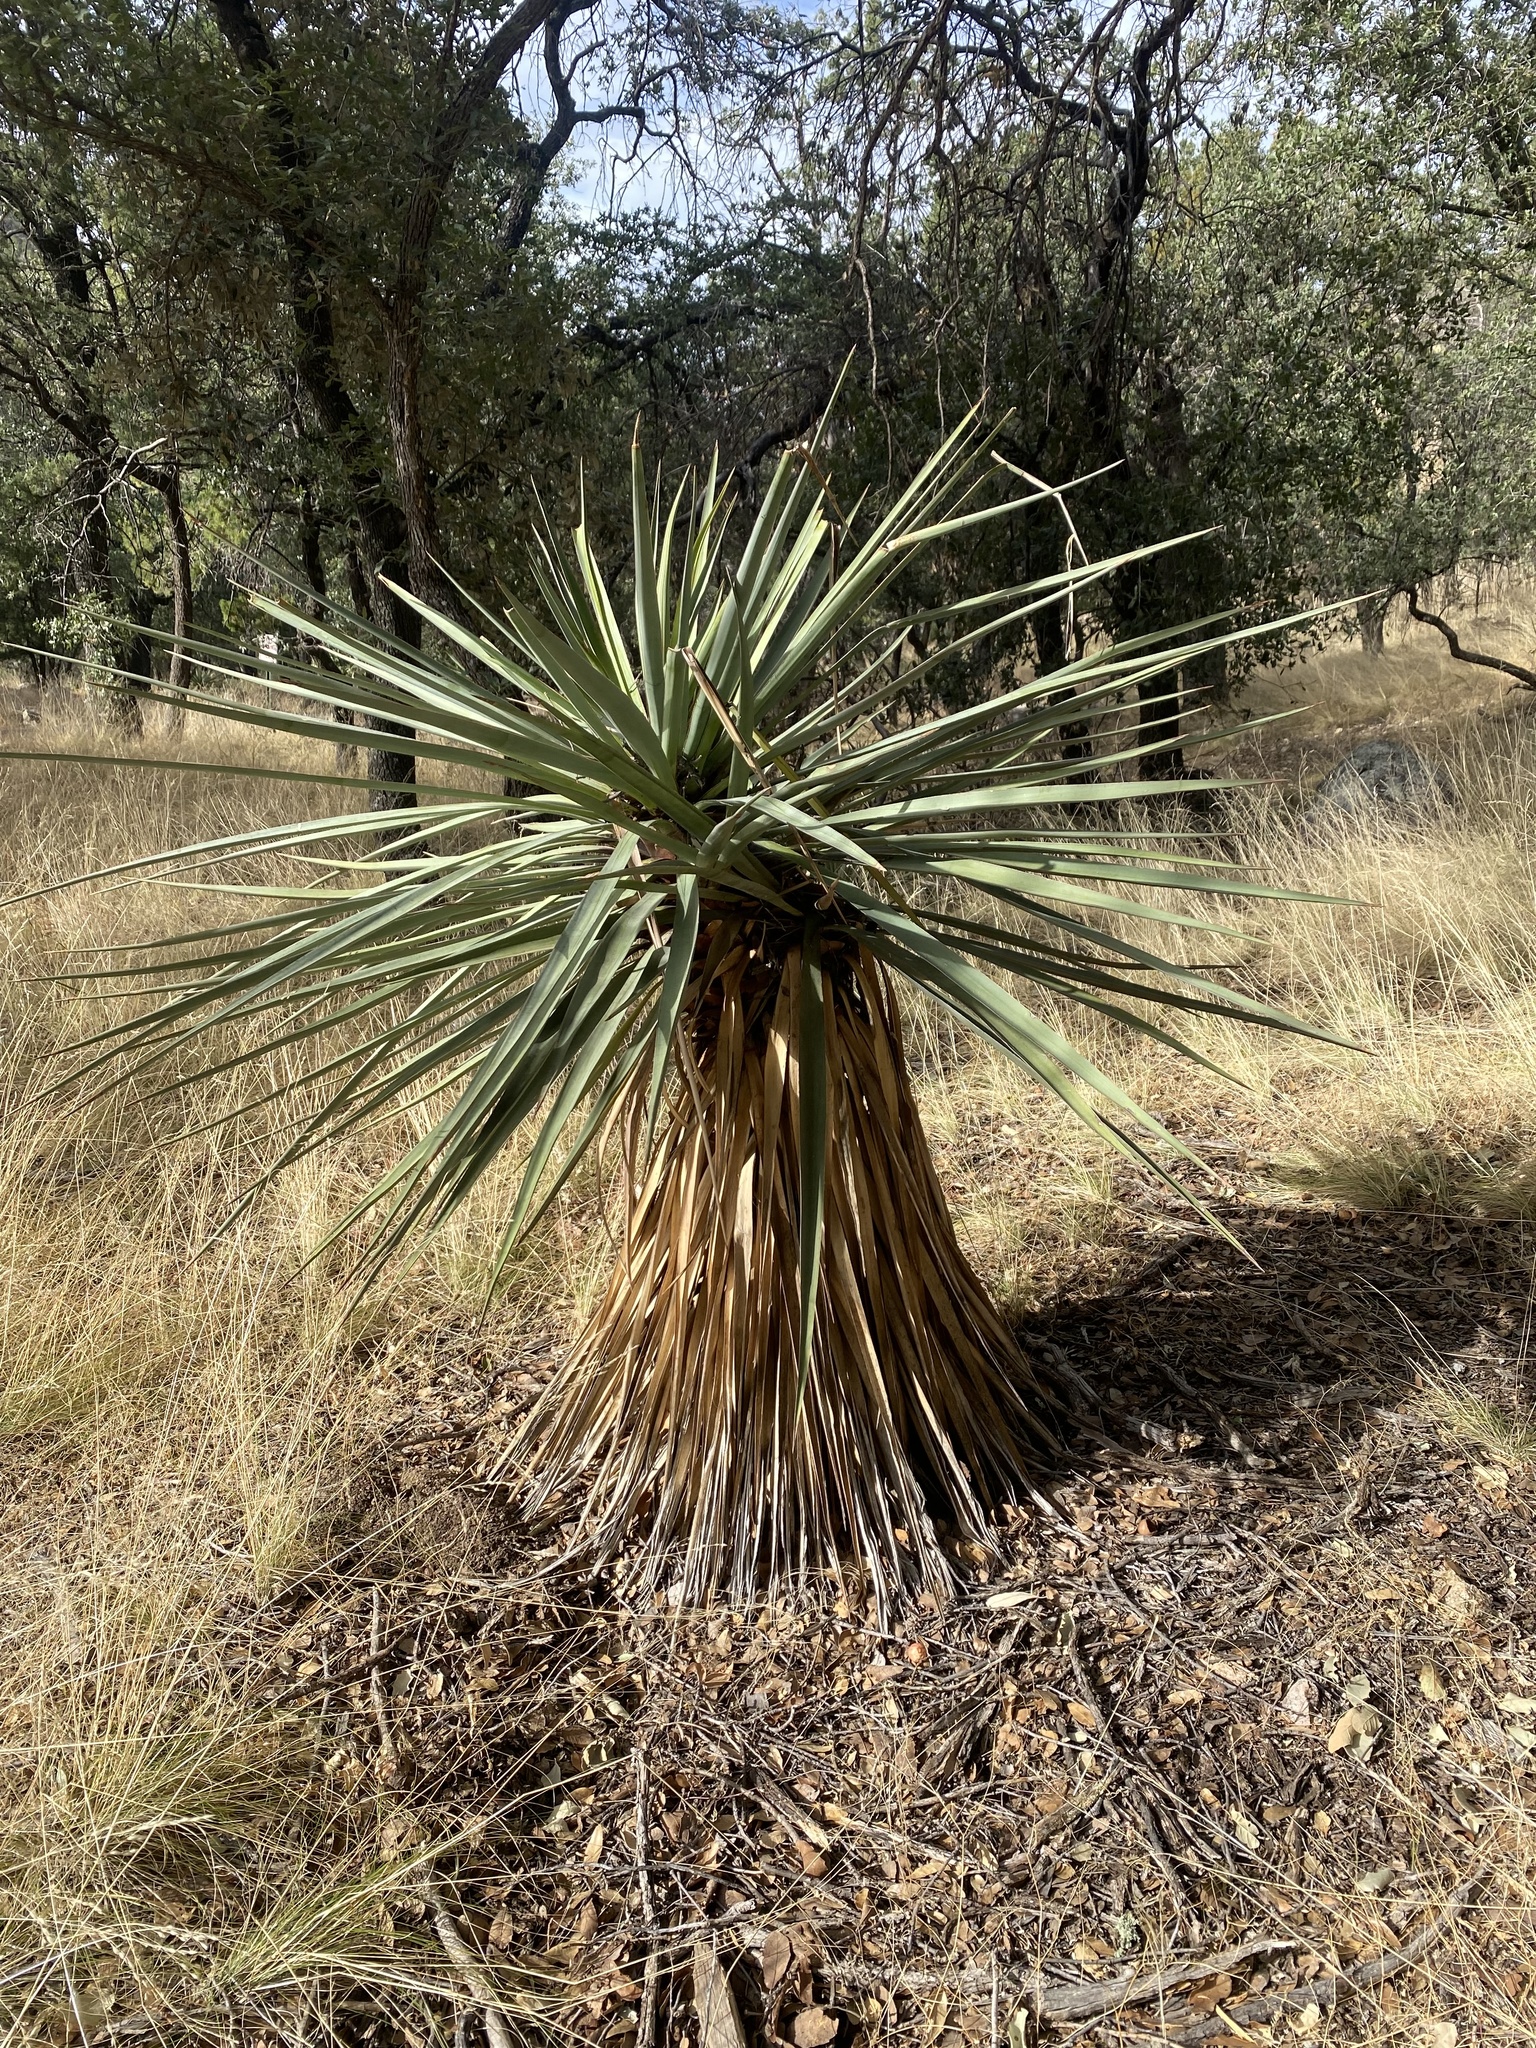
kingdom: Plantae
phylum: Tracheophyta
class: Liliopsida
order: Asparagales
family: Asparagaceae
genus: Yucca
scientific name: Yucca madrensis
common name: Hoary yucca
